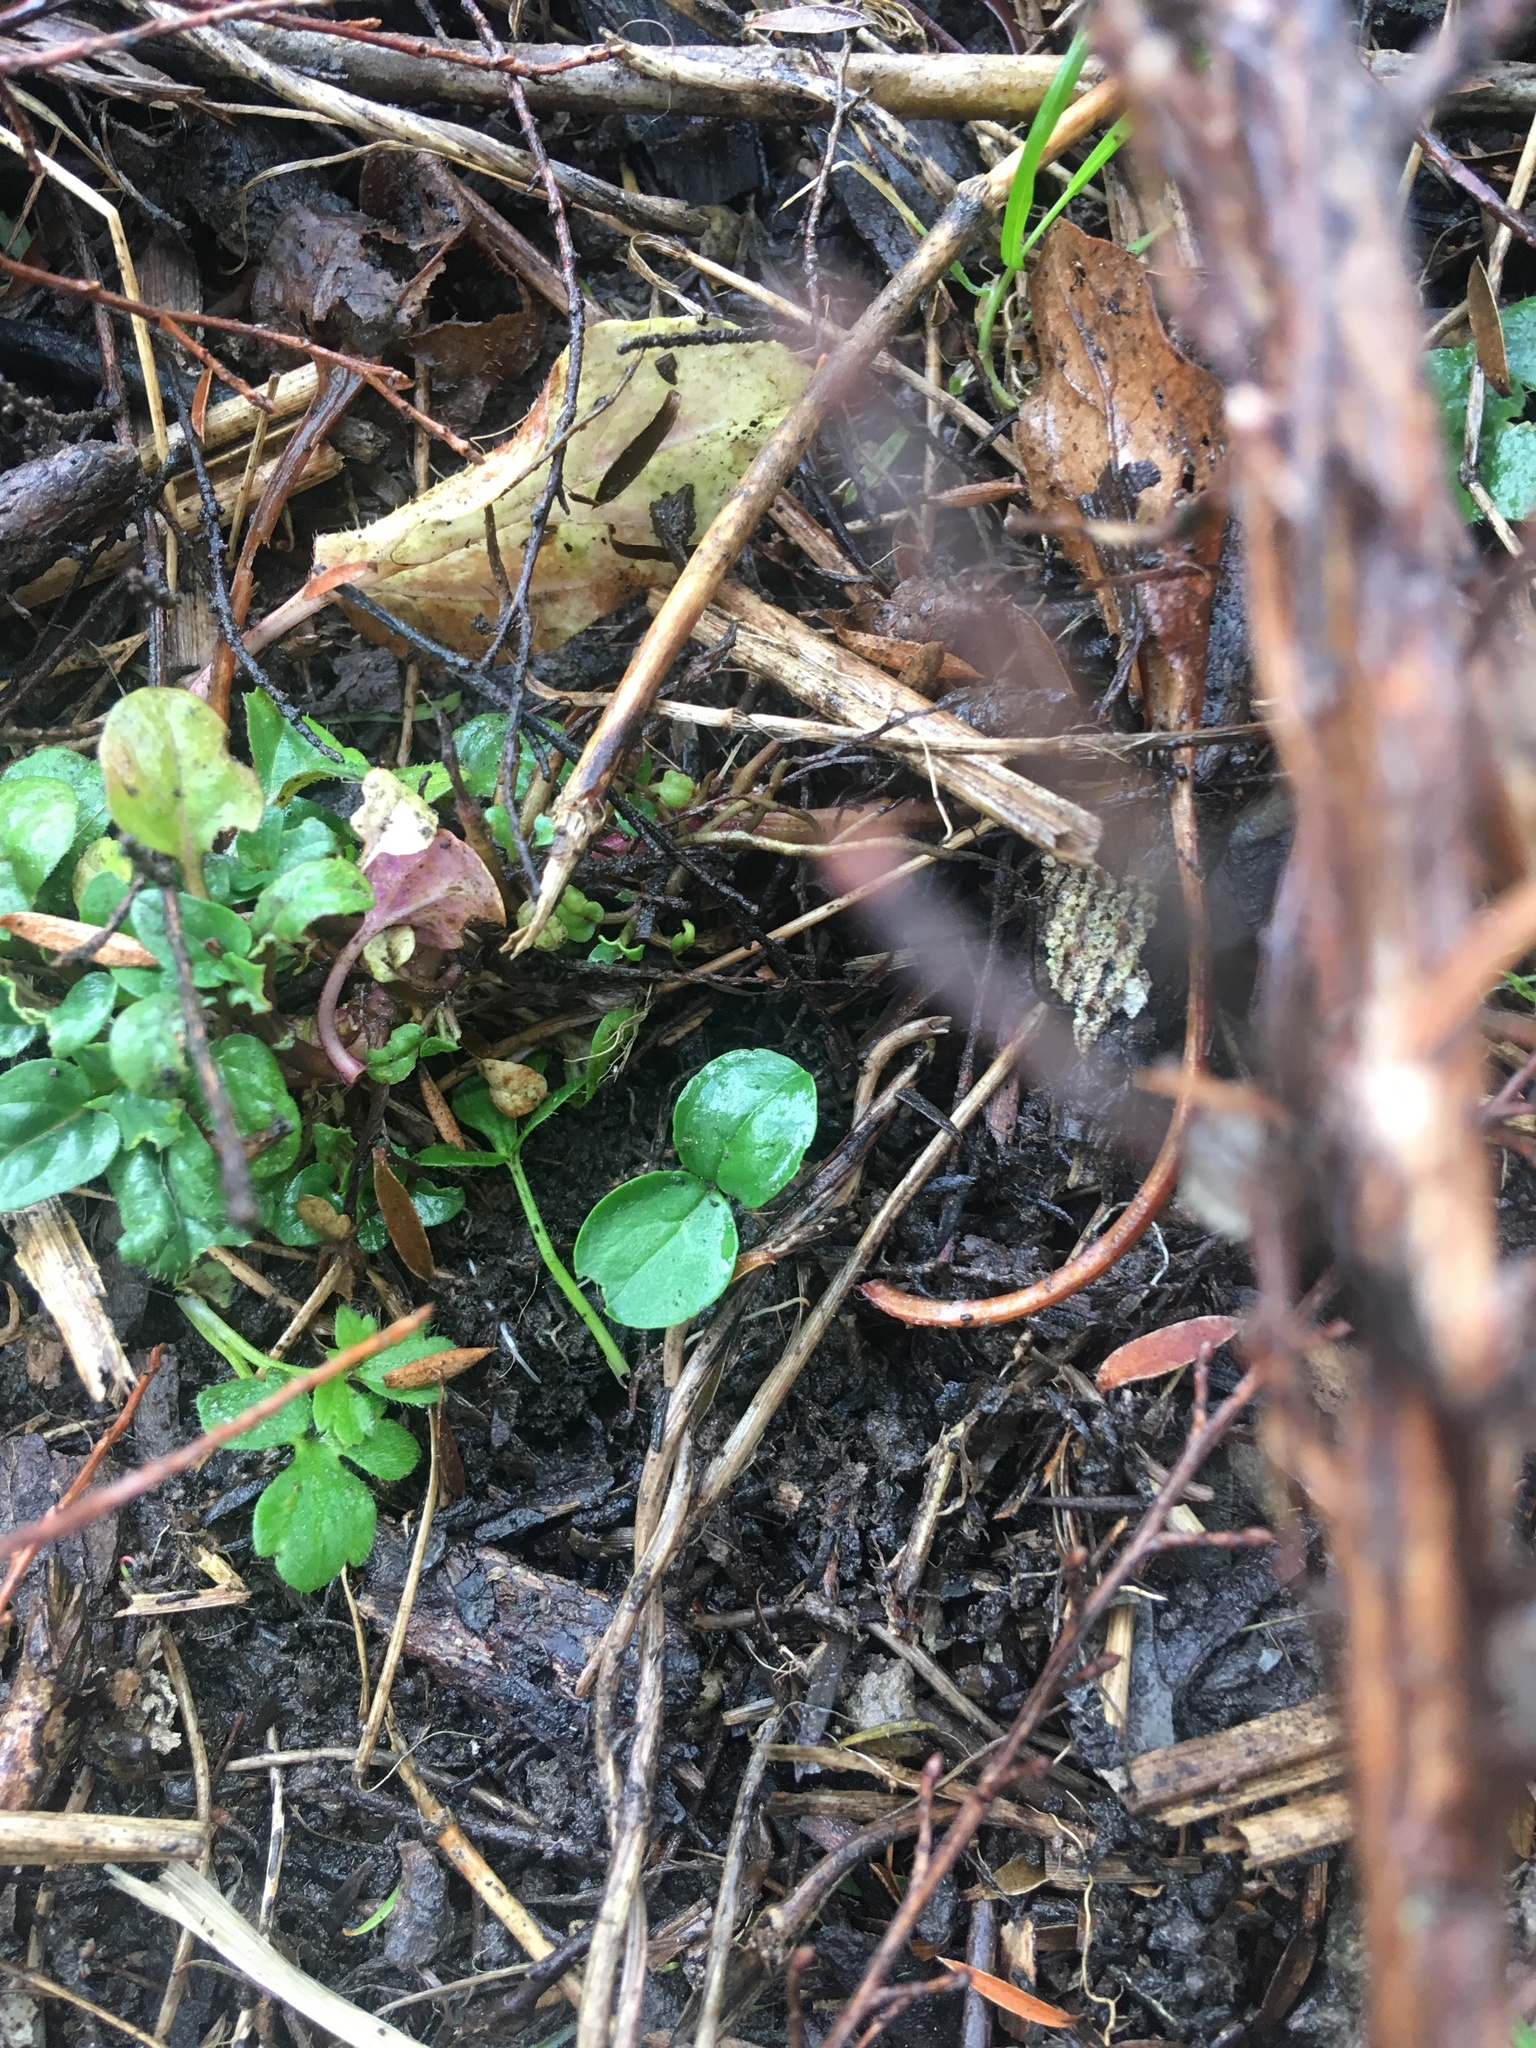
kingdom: Plantae
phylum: Tracheophyta
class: Magnoliopsida
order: Lamiales
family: Oleaceae
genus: Ligustrum
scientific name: Ligustrum sinense
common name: Chinese privet
